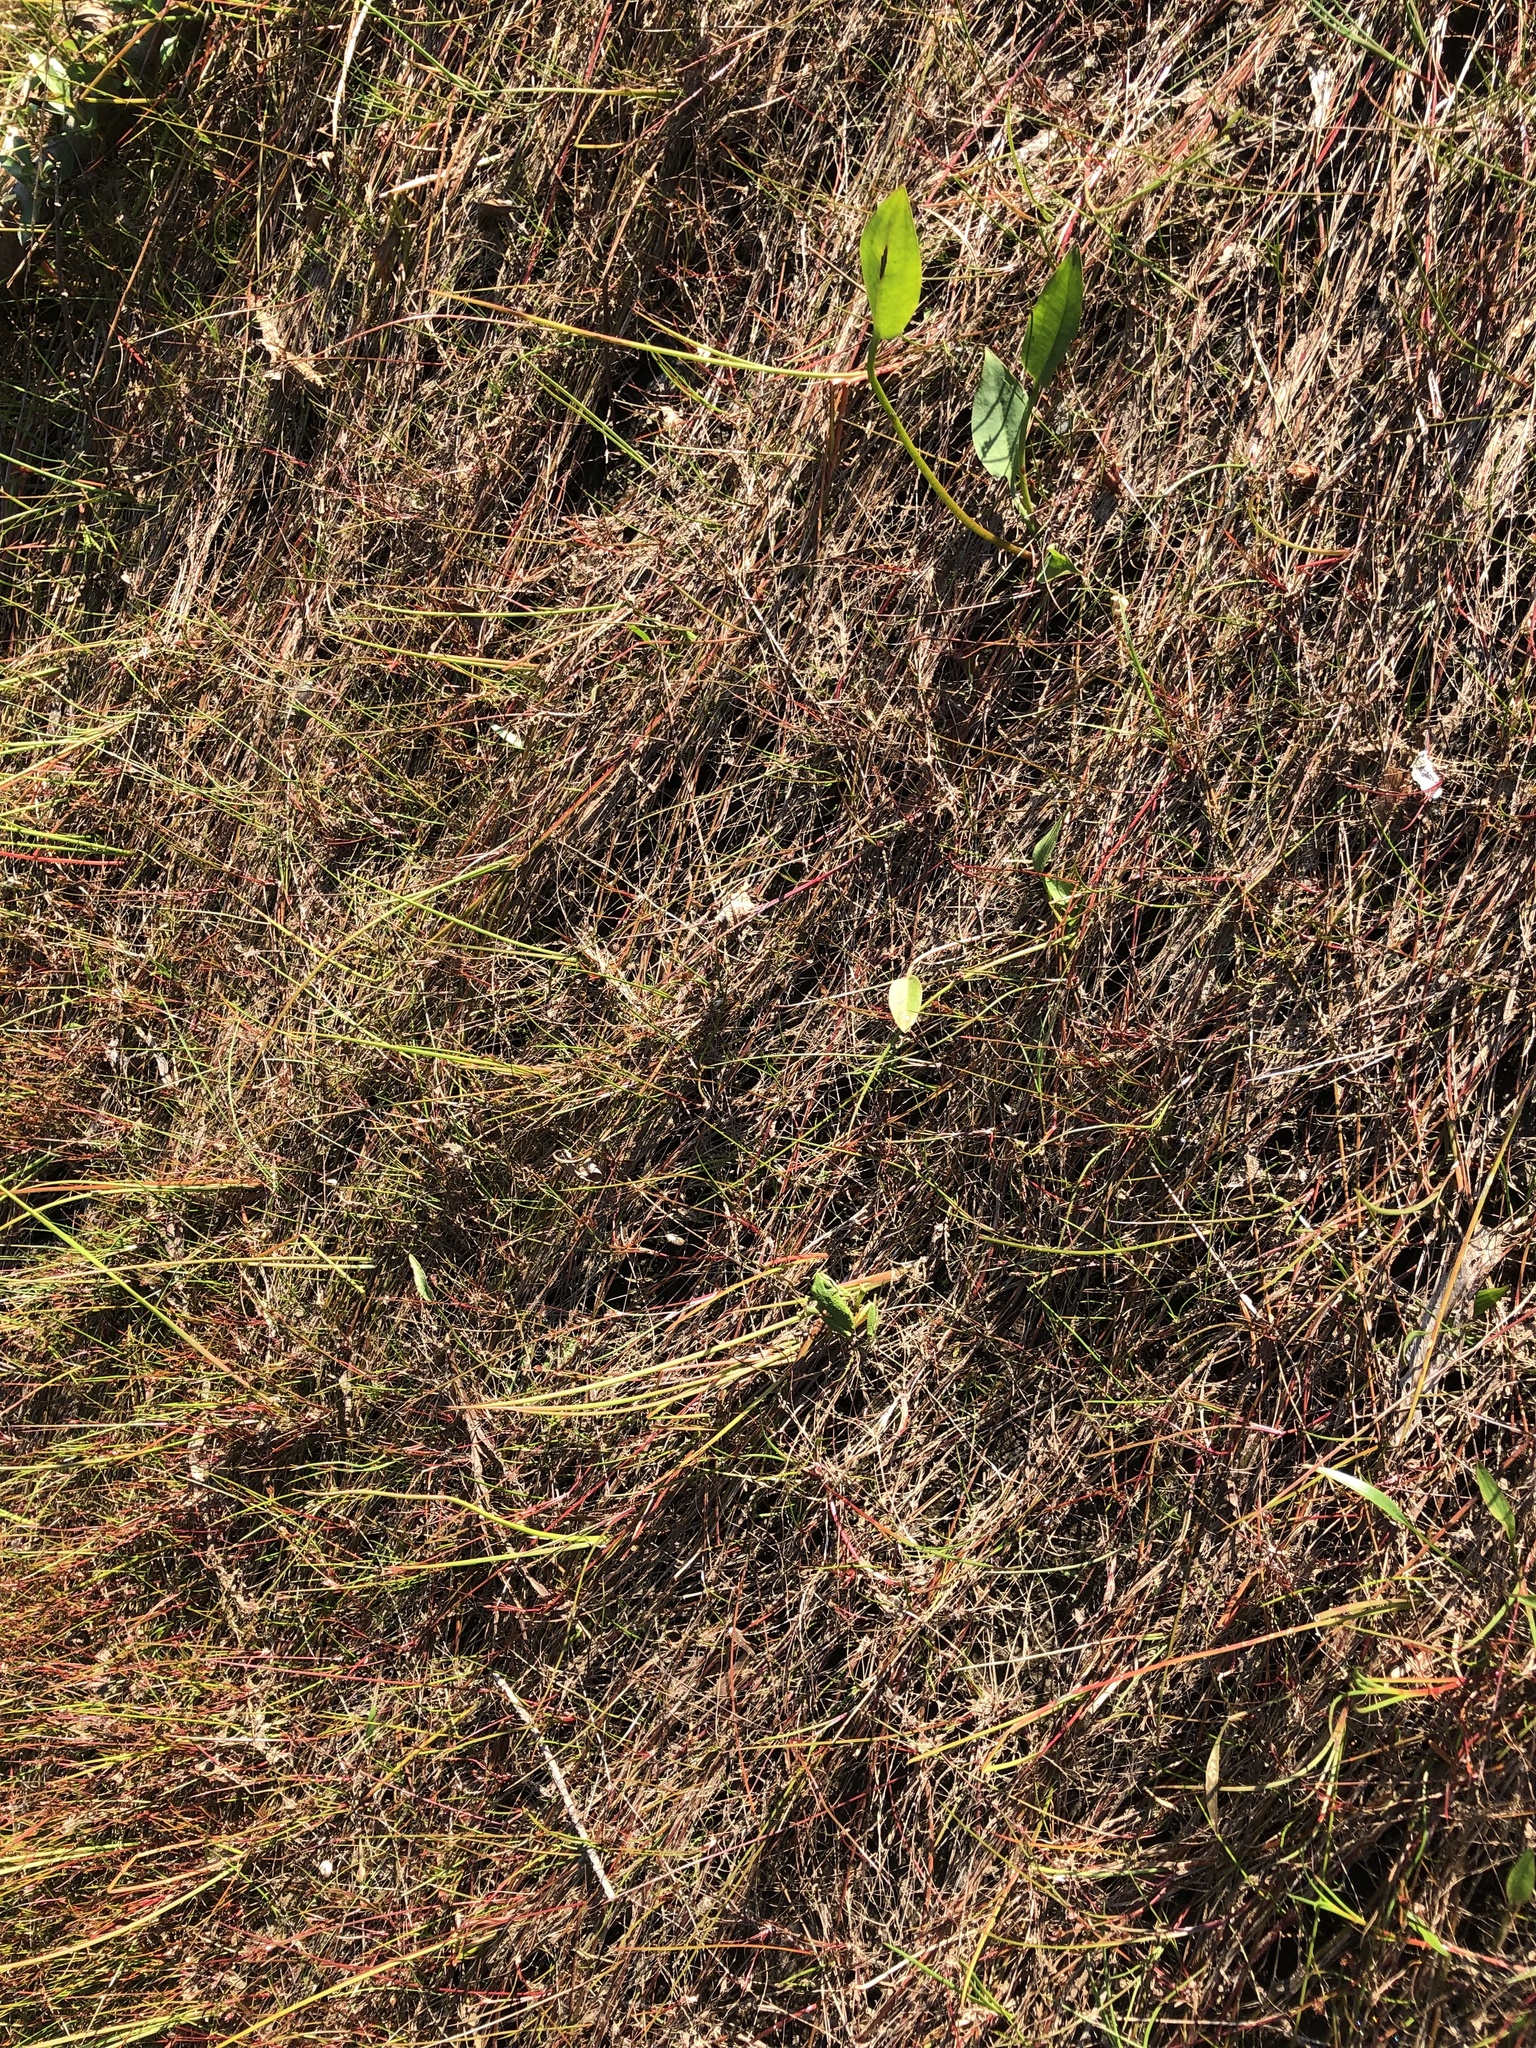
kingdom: Animalia
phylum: Chordata
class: Amphibia
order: Anura
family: Hylidae
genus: Pseudacris
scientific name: Pseudacris regilla
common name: Pacific chorus frog
